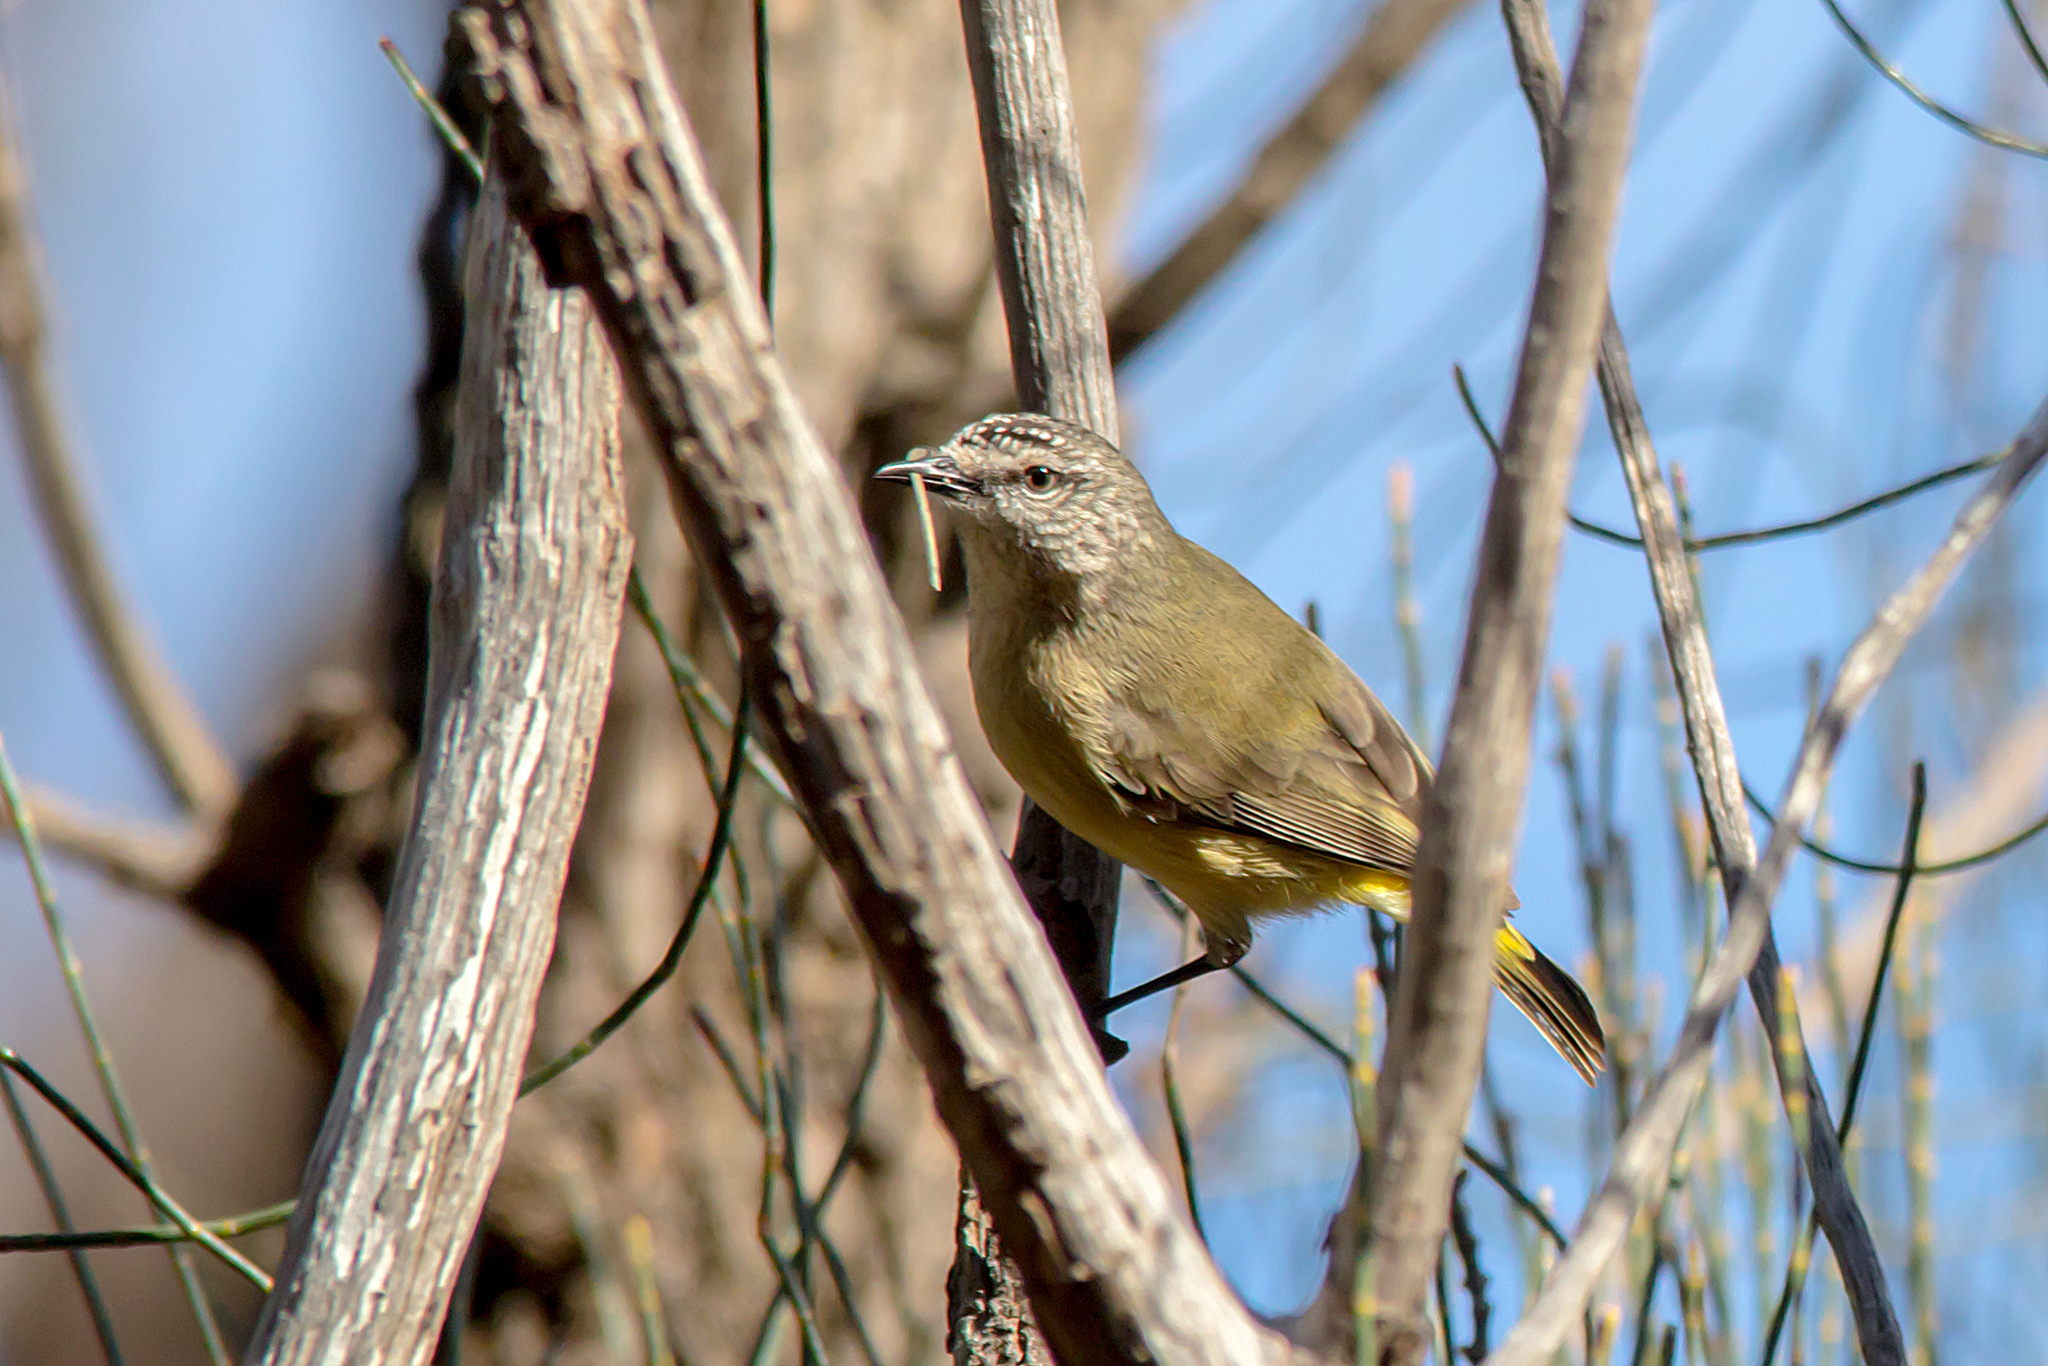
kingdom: Animalia
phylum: Chordata
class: Aves
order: Passeriformes
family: Acanthizidae
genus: Acanthiza
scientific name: Acanthiza chrysorrhoa
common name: Yellow-rumped thornbill
